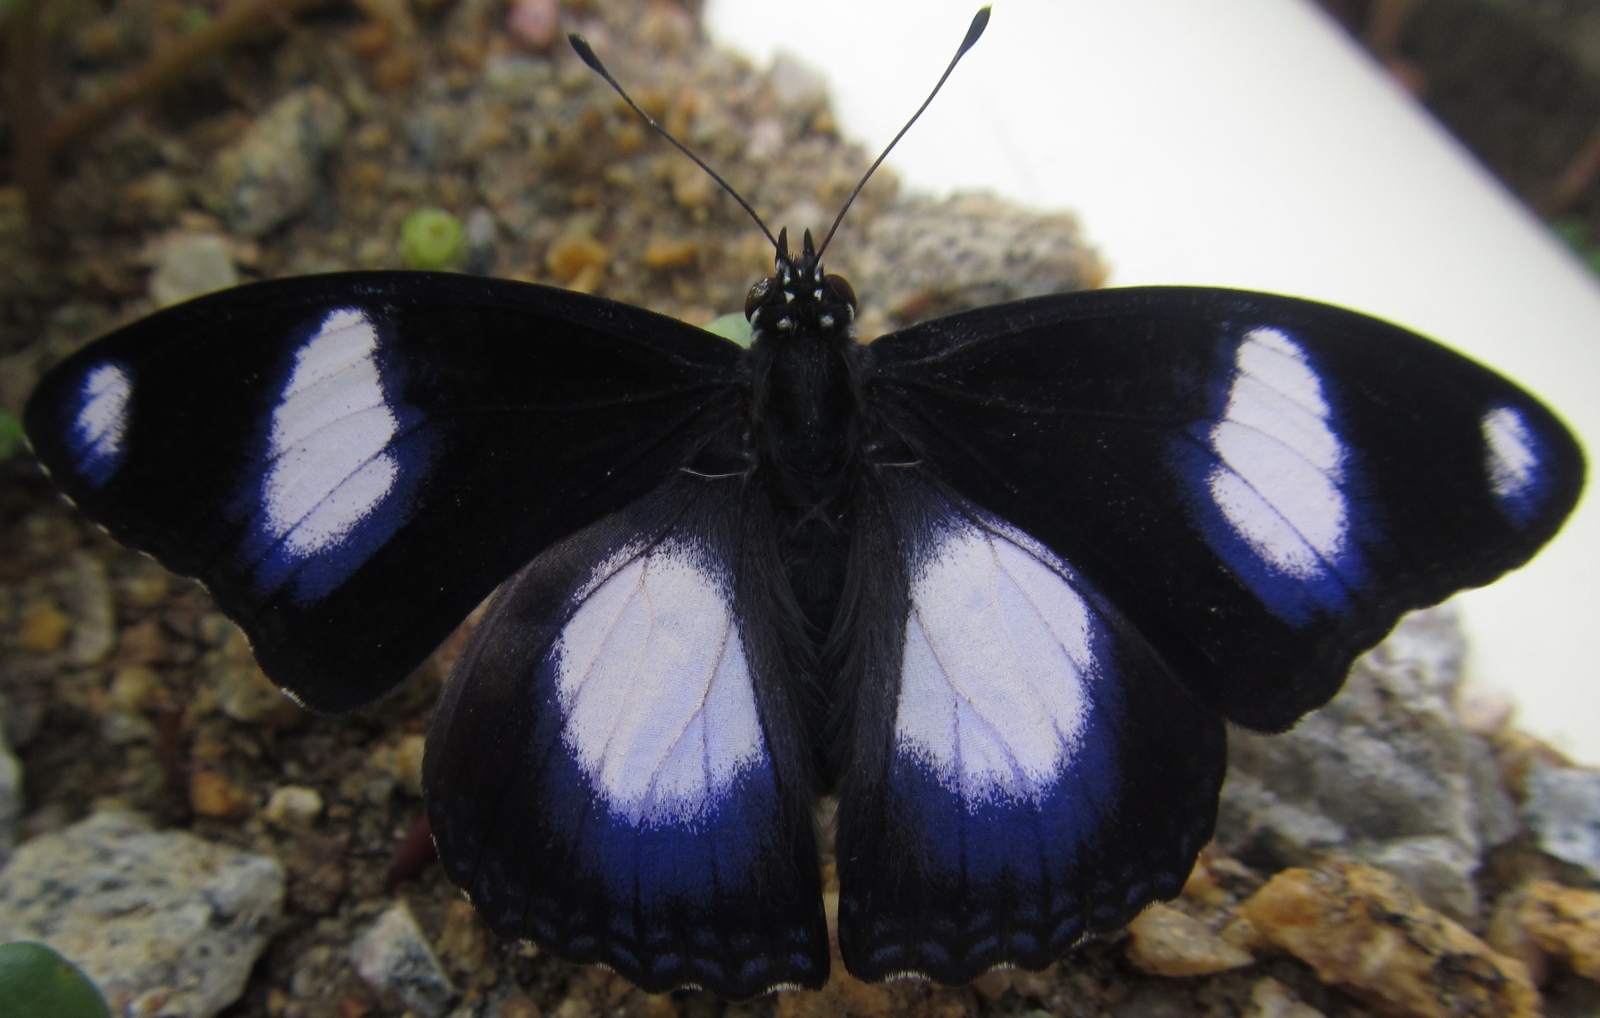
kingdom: Animalia
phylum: Arthropoda
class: Insecta
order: Lepidoptera
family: Nymphalidae
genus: Hypolimnas
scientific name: Hypolimnas misippus
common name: False plain tiger
